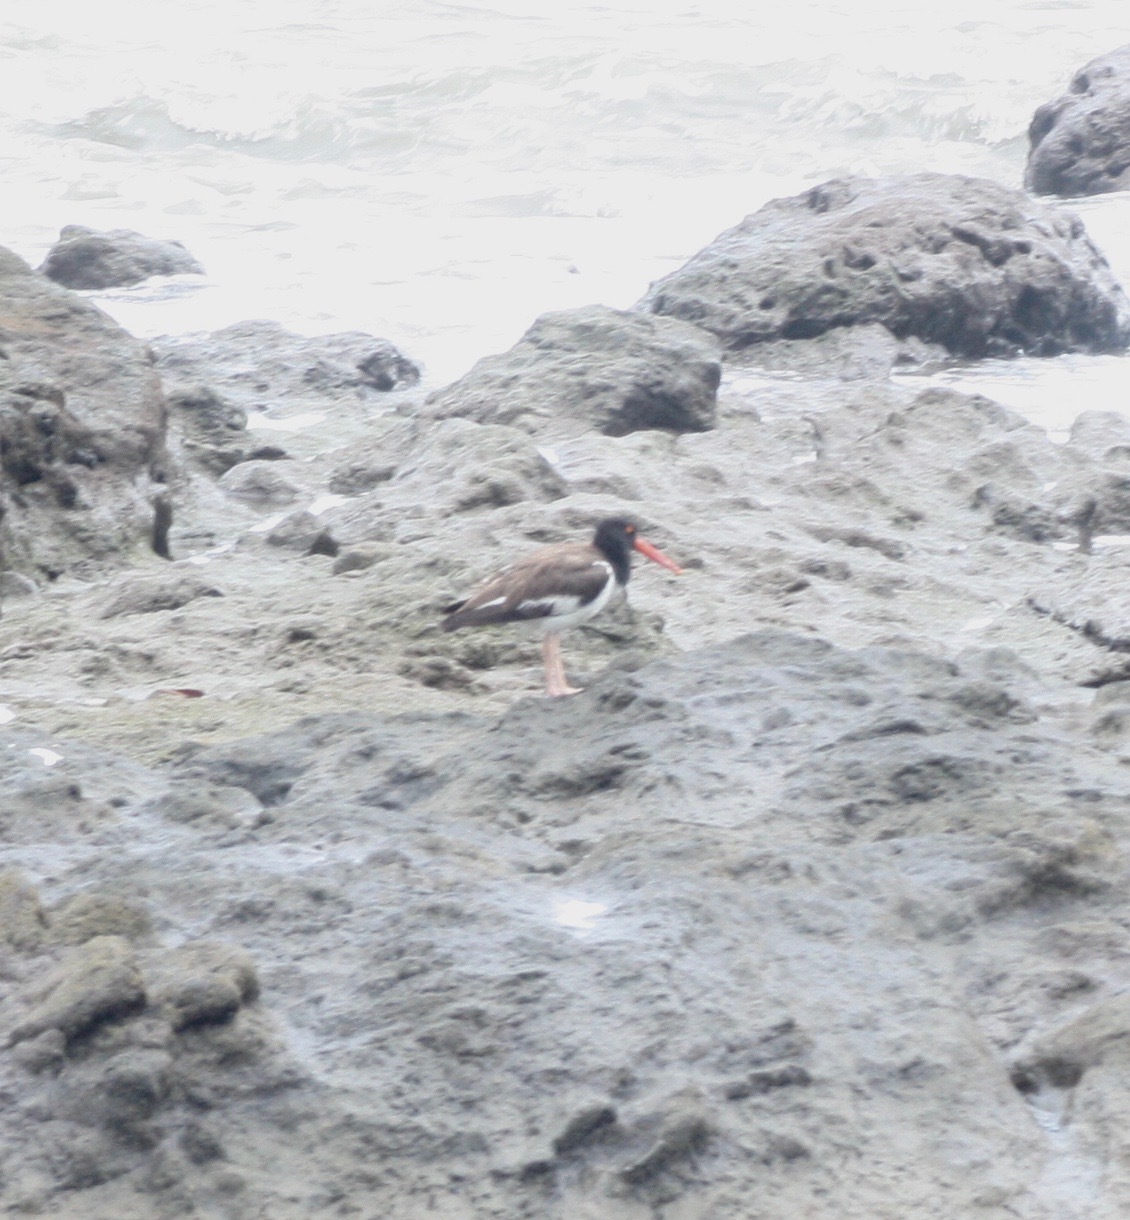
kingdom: Animalia
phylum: Chordata
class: Aves
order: Charadriiformes
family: Haematopodidae
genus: Haematopus
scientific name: Haematopus palliatus
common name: American oystercatcher
